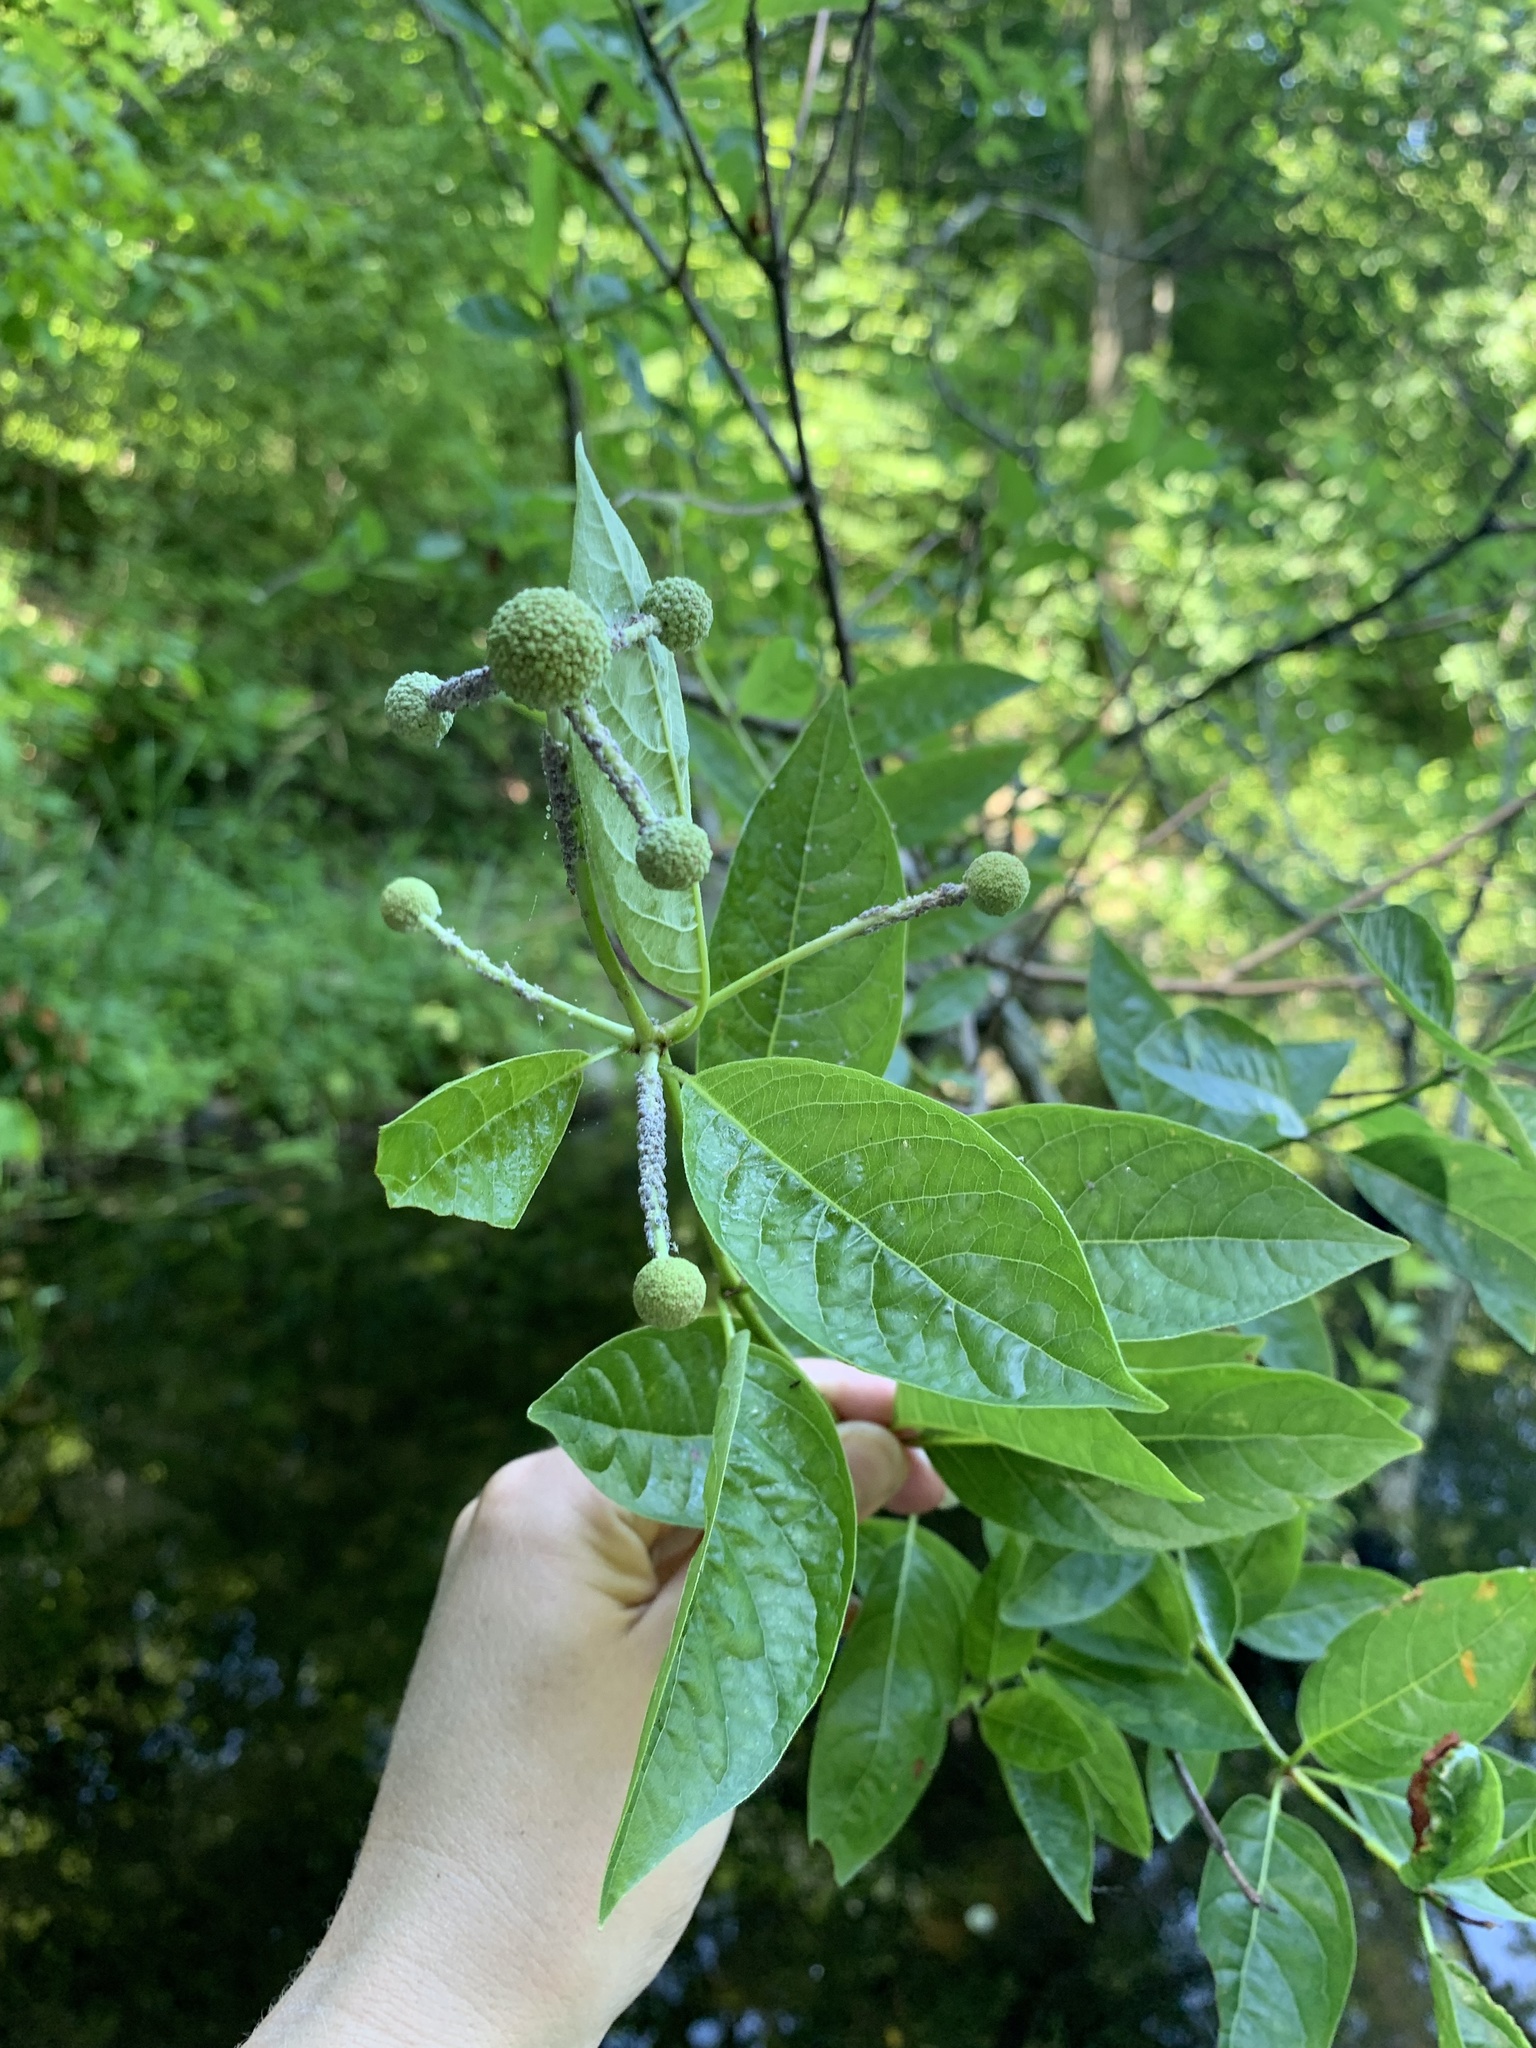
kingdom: Plantae
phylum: Tracheophyta
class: Magnoliopsida
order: Gentianales
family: Rubiaceae
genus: Cephalanthus
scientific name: Cephalanthus occidentalis
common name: Button-willow
